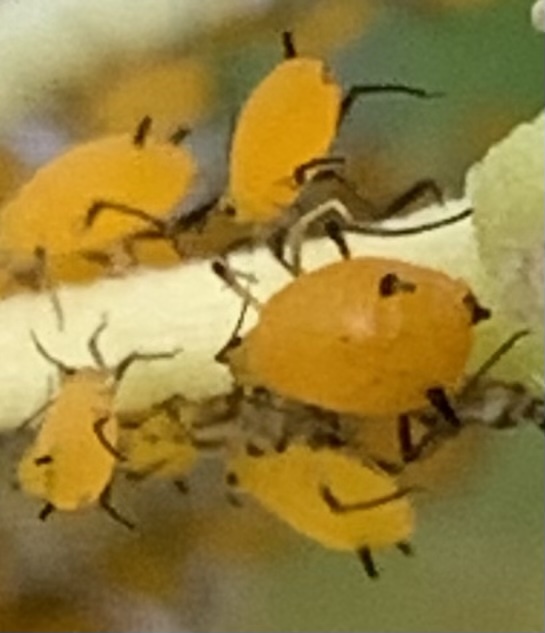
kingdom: Animalia
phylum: Arthropoda
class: Insecta
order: Hemiptera
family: Aphididae
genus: Aphis
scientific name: Aphis nerii
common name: Oleander aphid
